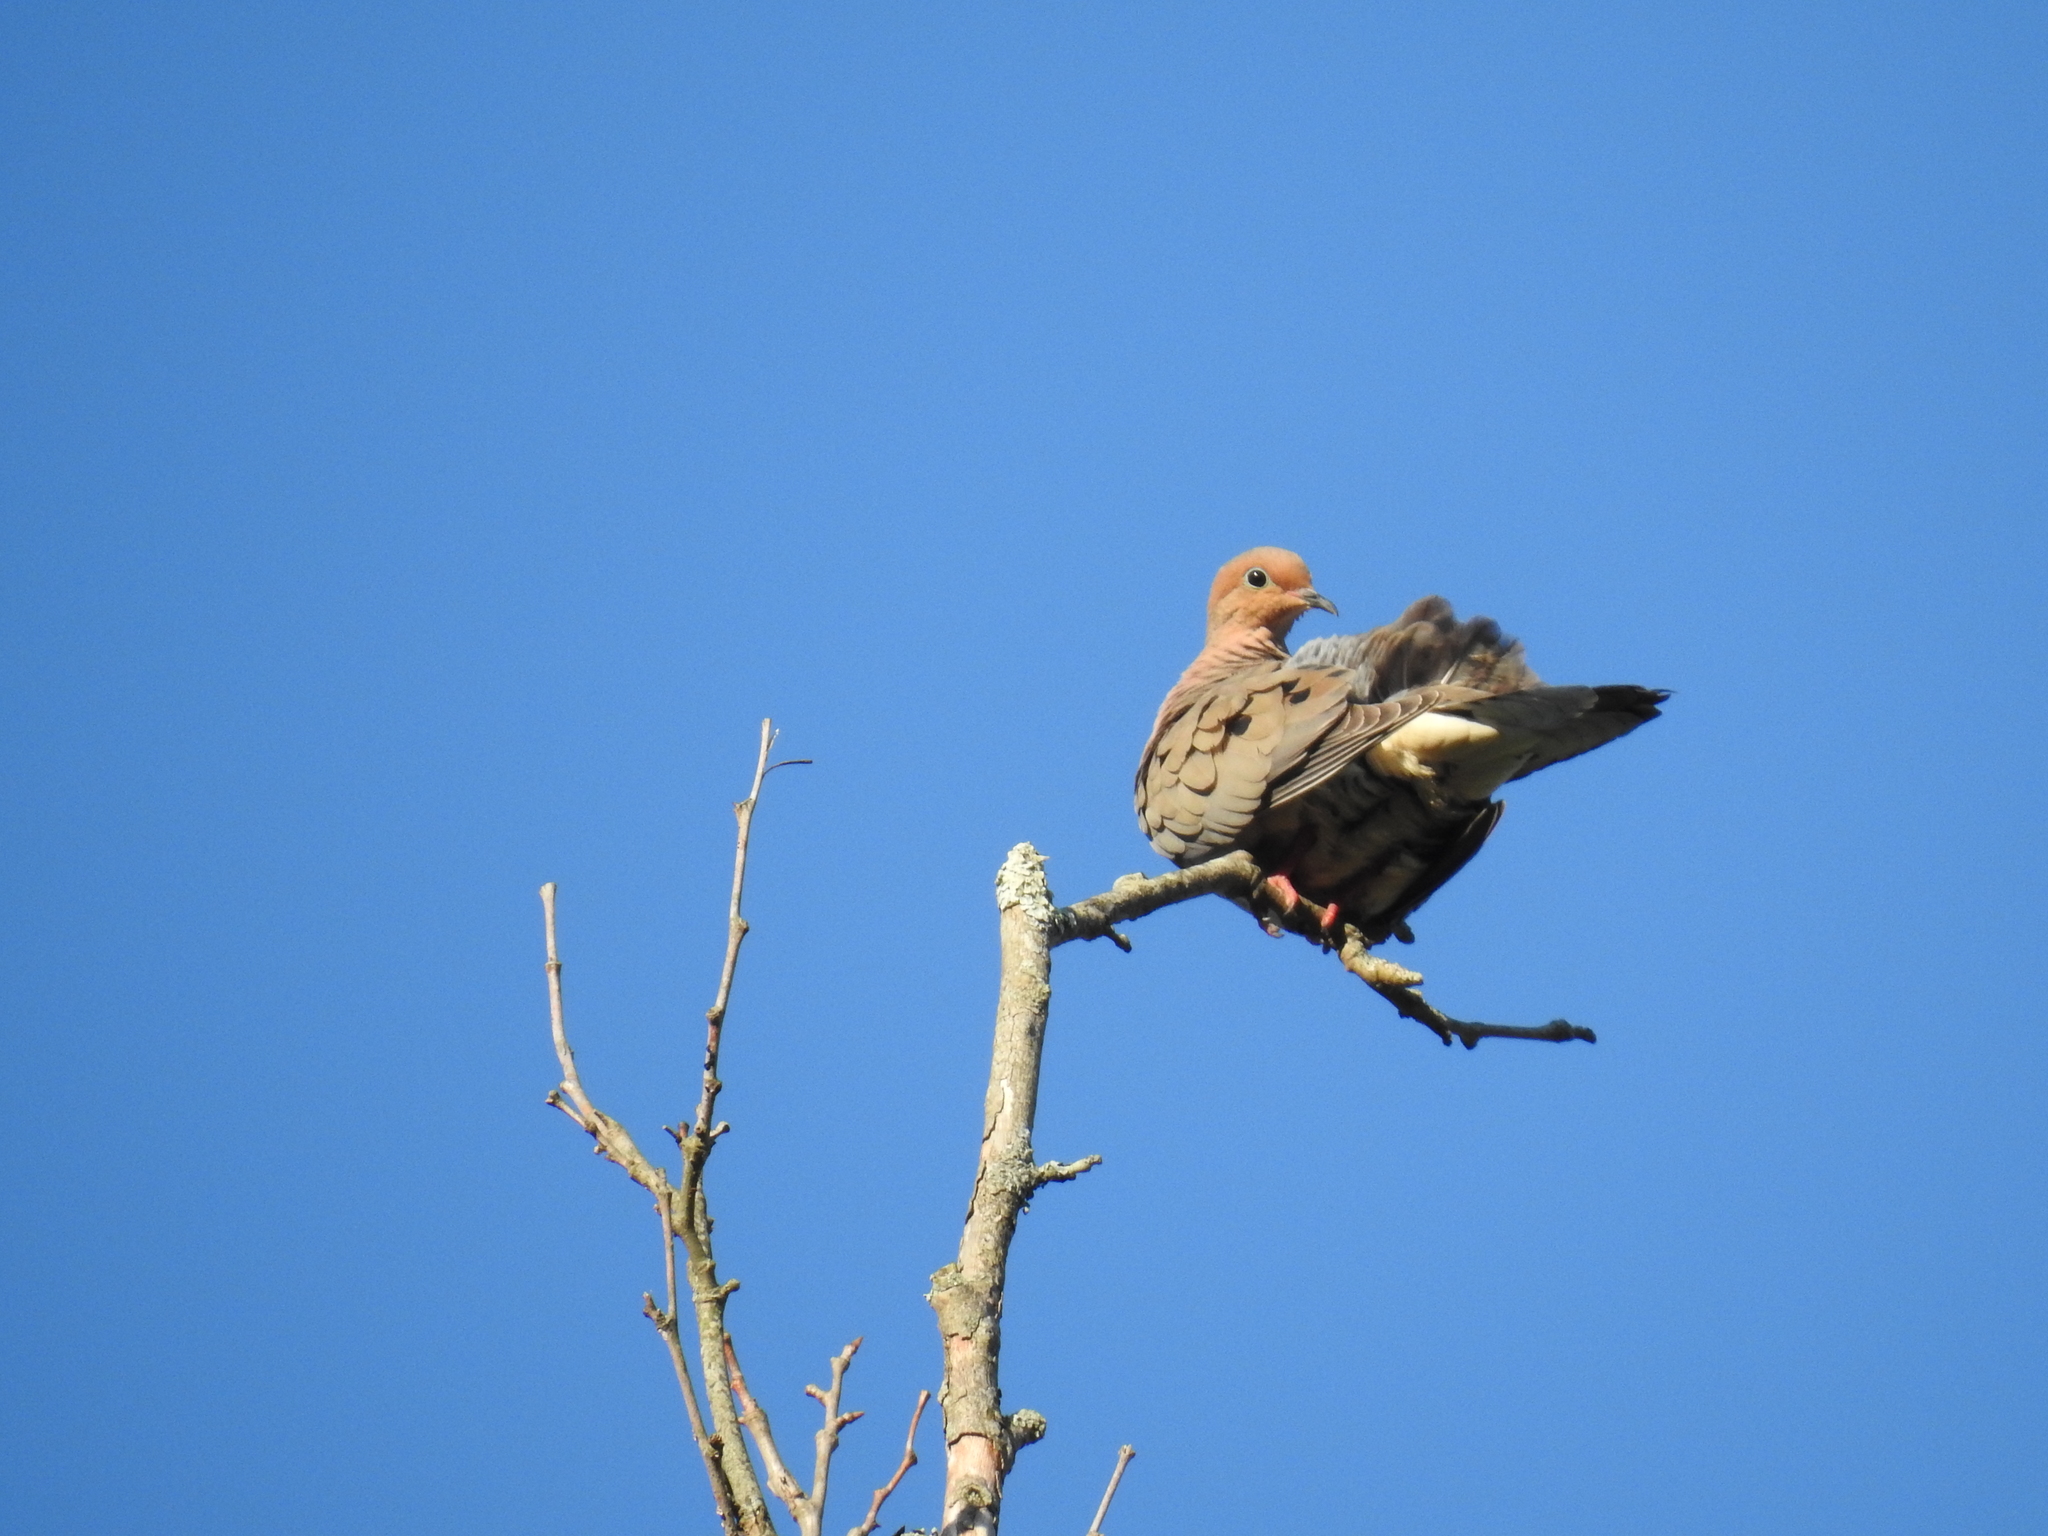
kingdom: Animalia
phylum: Chordata
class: Aves
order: Columbiformes
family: Columbidae
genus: Zenaida
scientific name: Zenaida macroura
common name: Mourning dove
